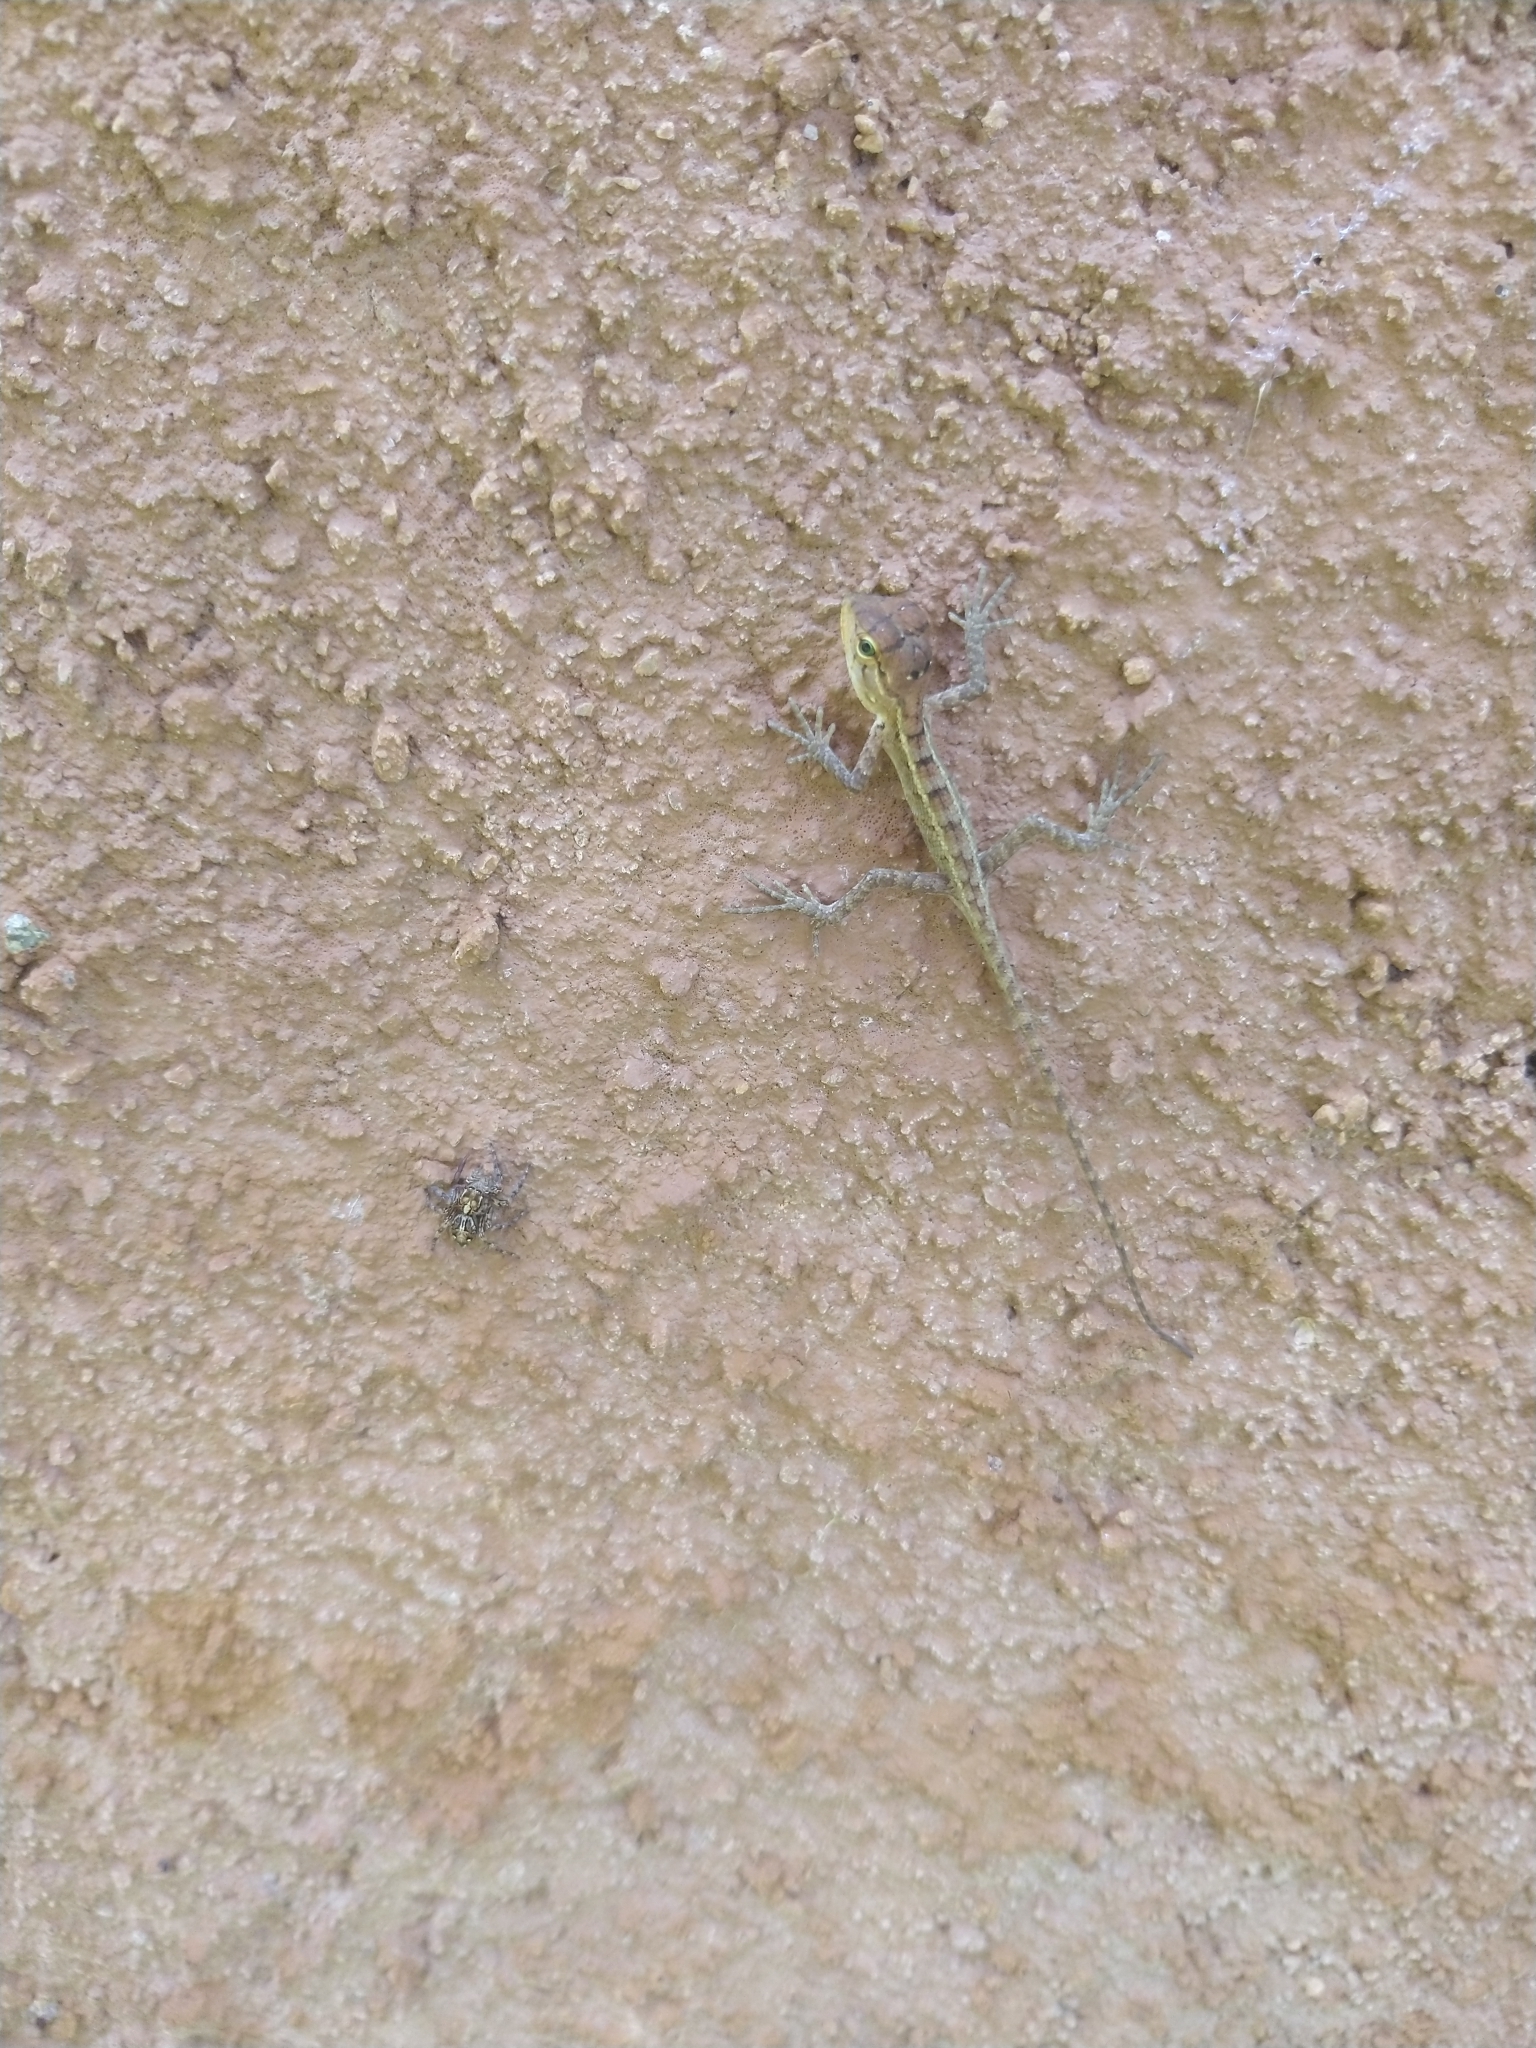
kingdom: Animalia
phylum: Chordata
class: Squamata
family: Agamidae
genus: Calotes
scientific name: Calotes versicolor
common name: Oriental garden lizard
